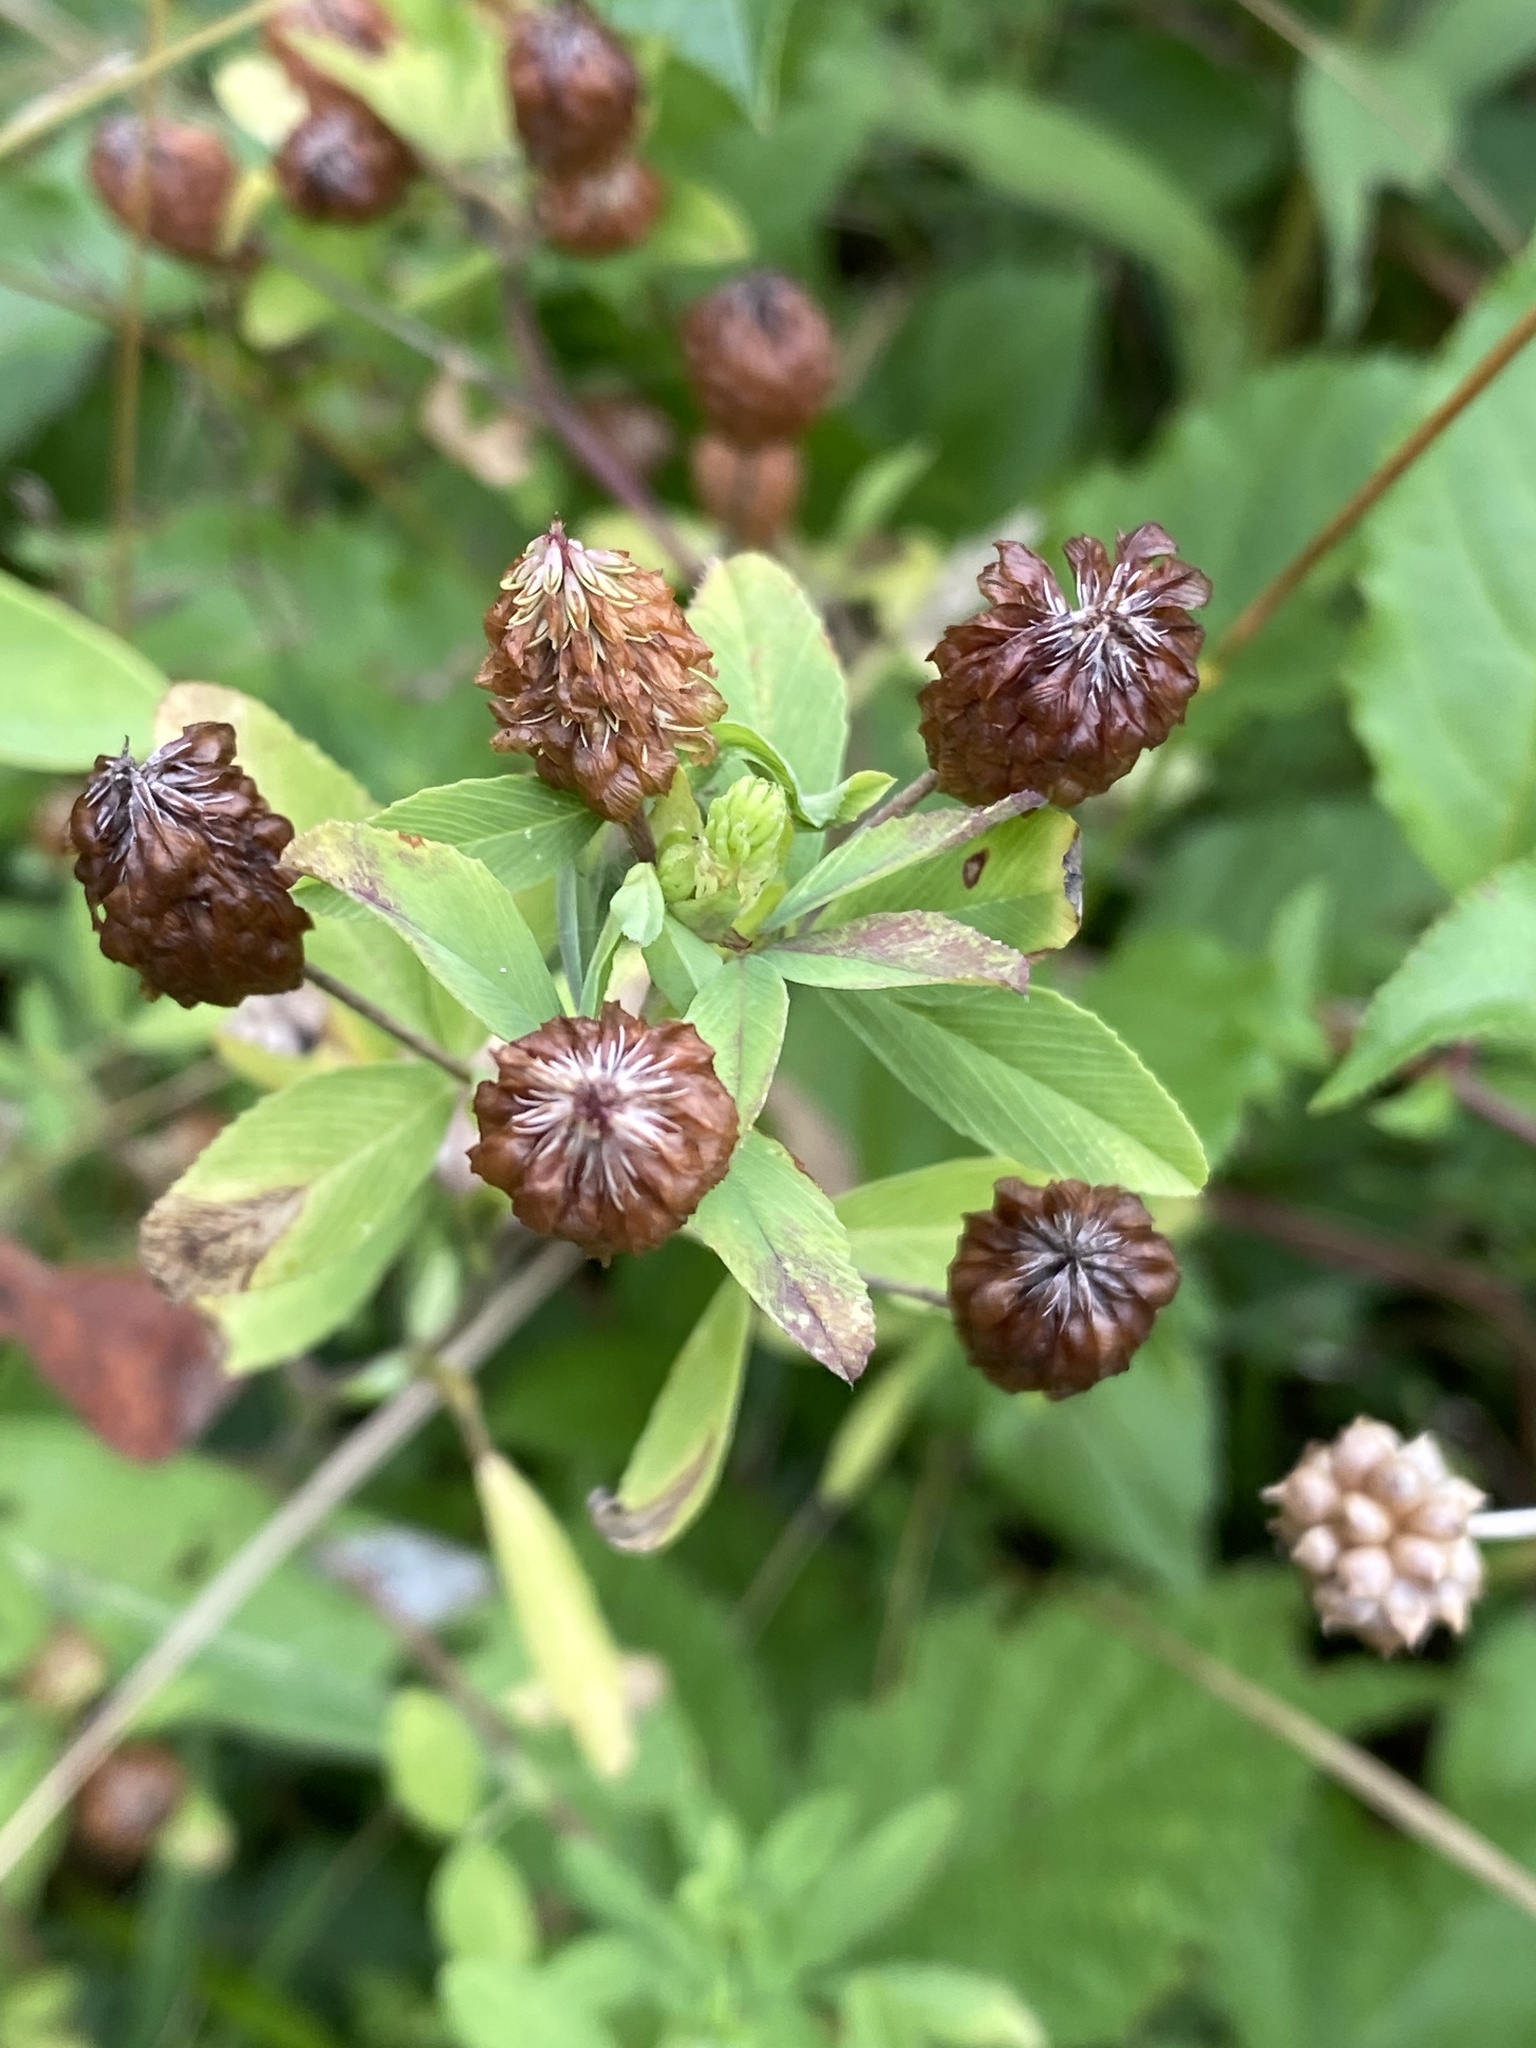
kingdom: Plantae
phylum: Tracheophyta
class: Magnoliopsida
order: Fabales
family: Fabaceae
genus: Trifolium
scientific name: Trifolium aureum
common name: Golden clover
